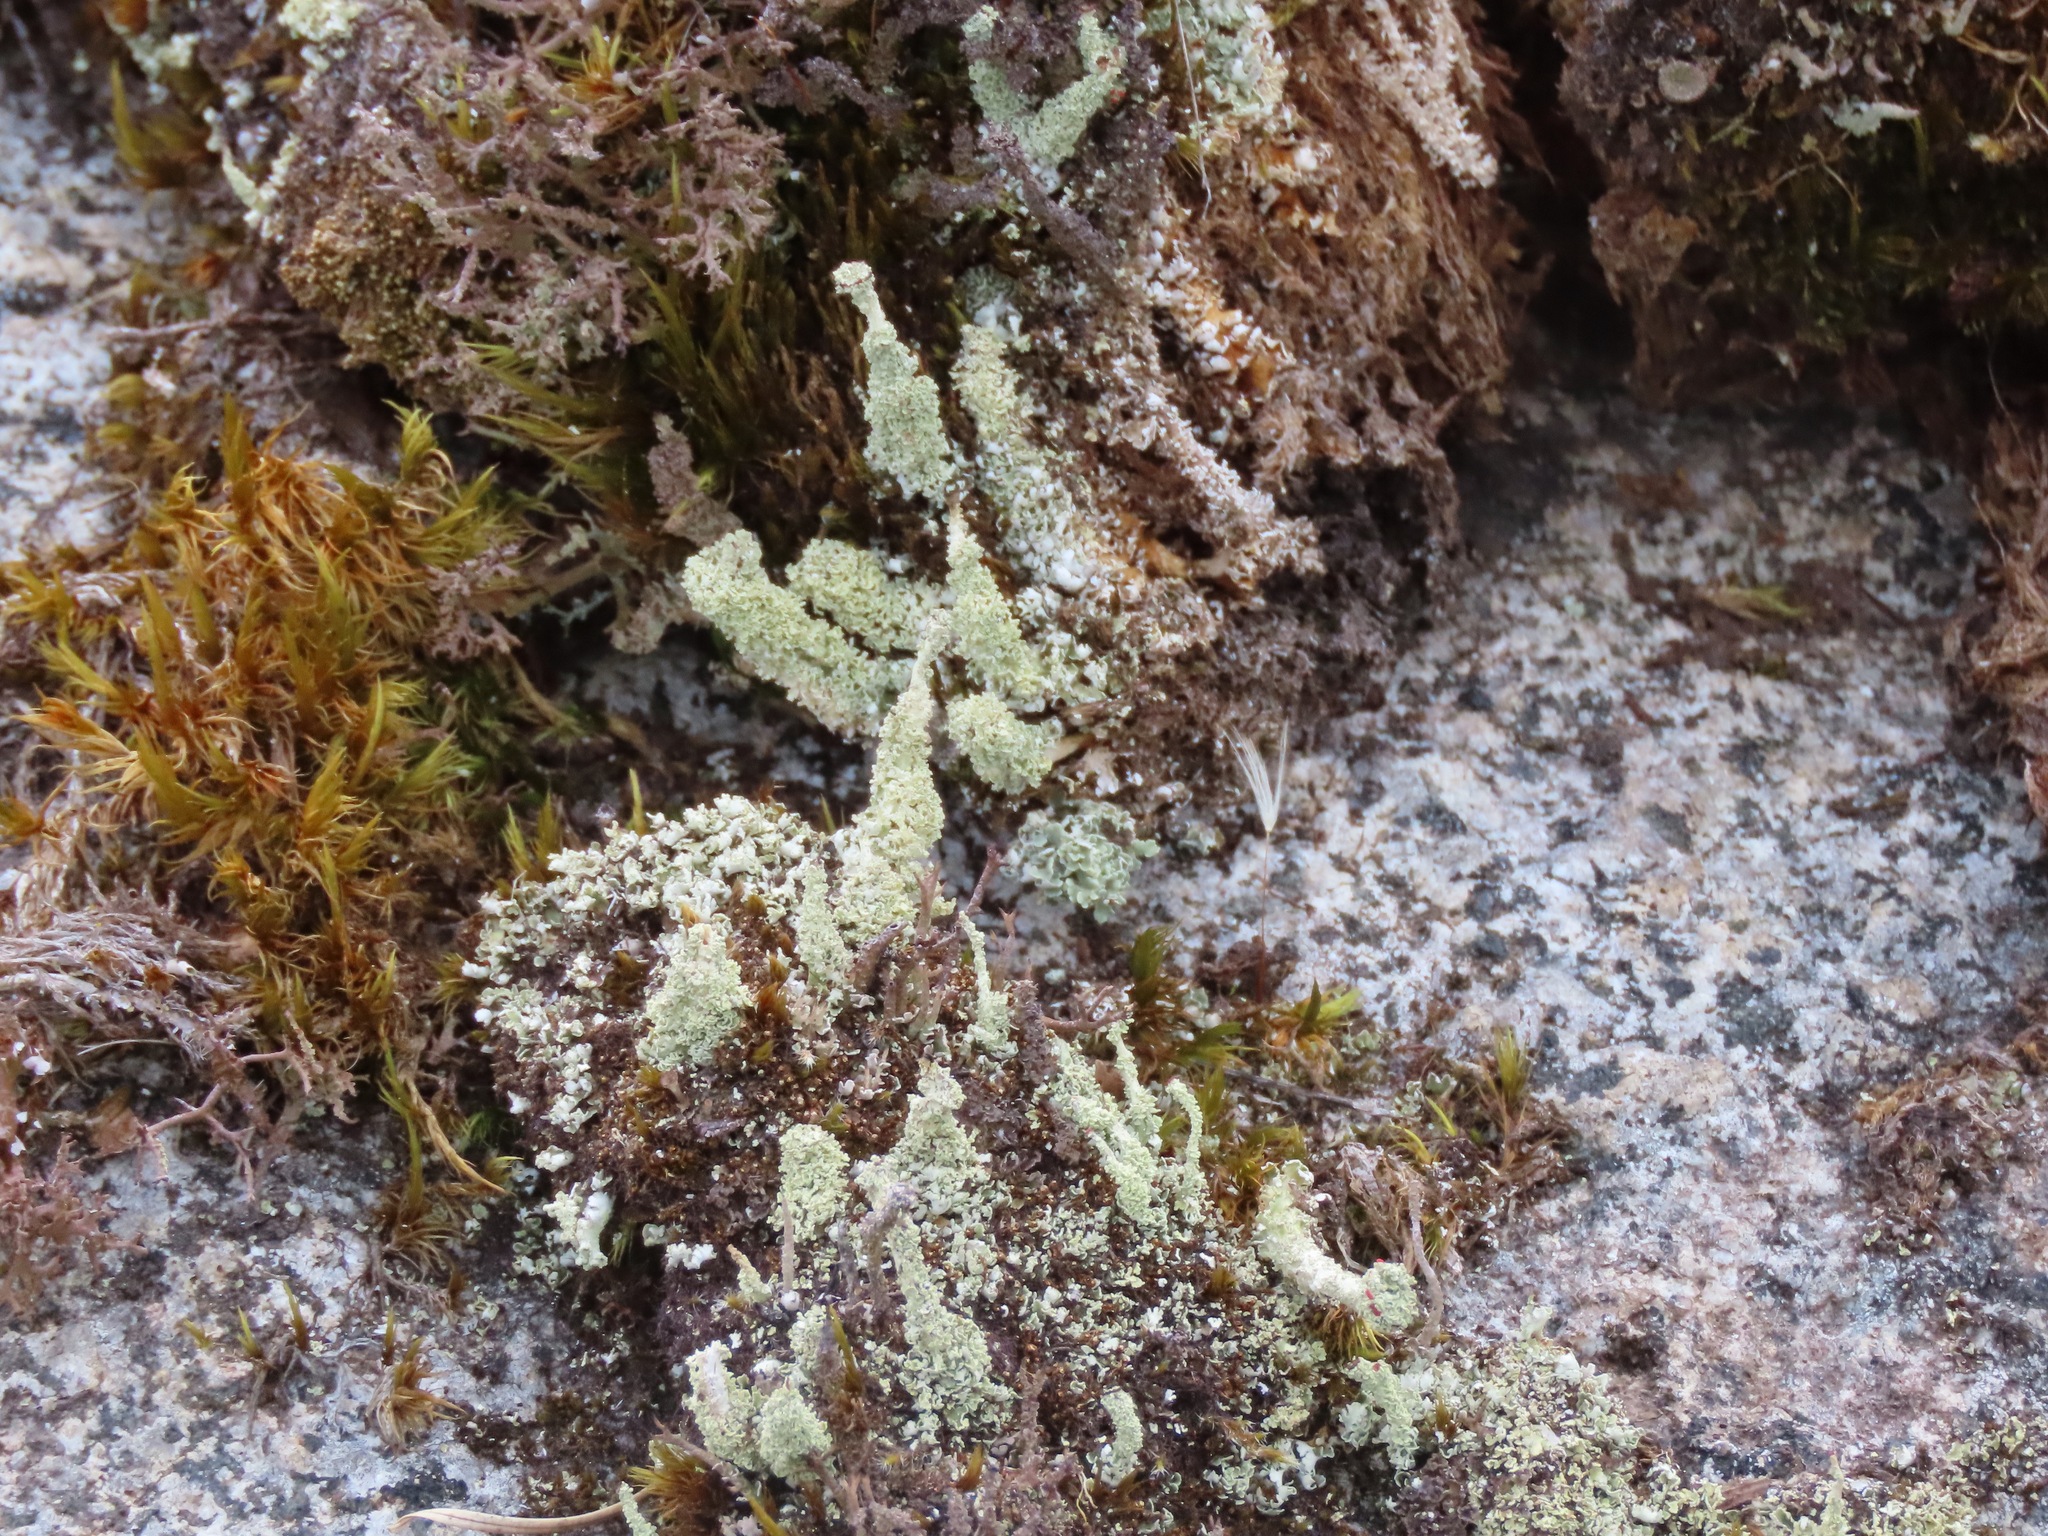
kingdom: Fungi
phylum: Ascomycota
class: Lecanoromycetes
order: Lecanorales
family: Cladoniaceae
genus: Cladonia
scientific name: Cladonia squamosa
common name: Dragon horn
